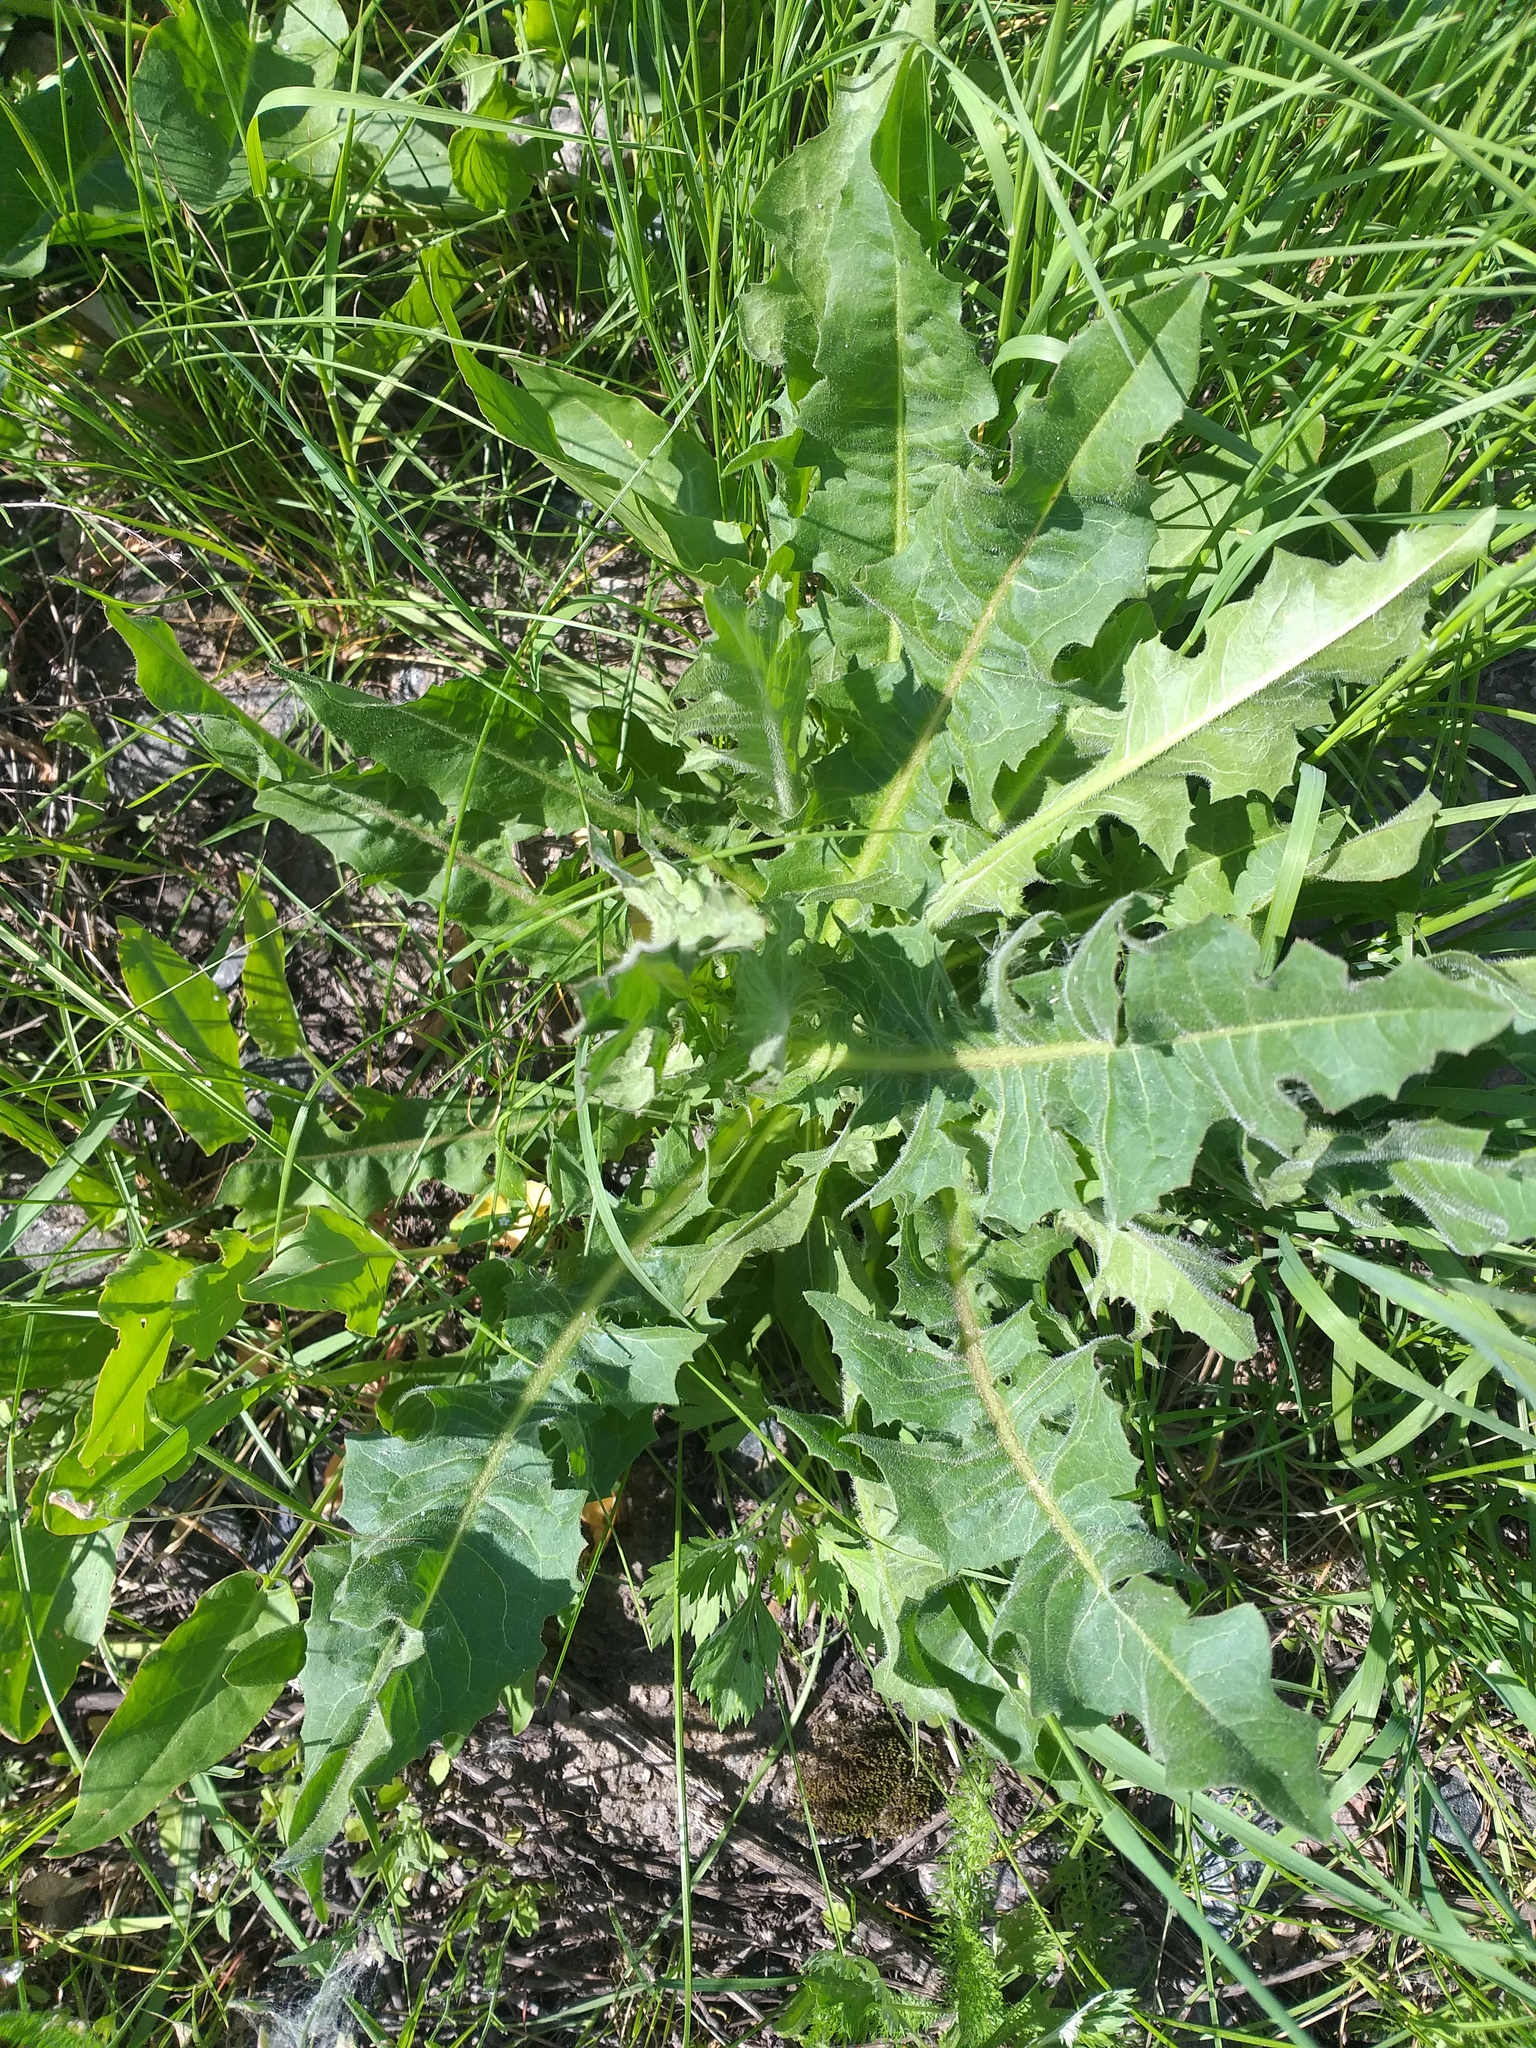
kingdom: Plantae
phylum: Tracheophyta
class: Magnoliopsida
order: Asterales
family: Asteraceae
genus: Cichorium
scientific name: Cichorium intybus
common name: Chicory
